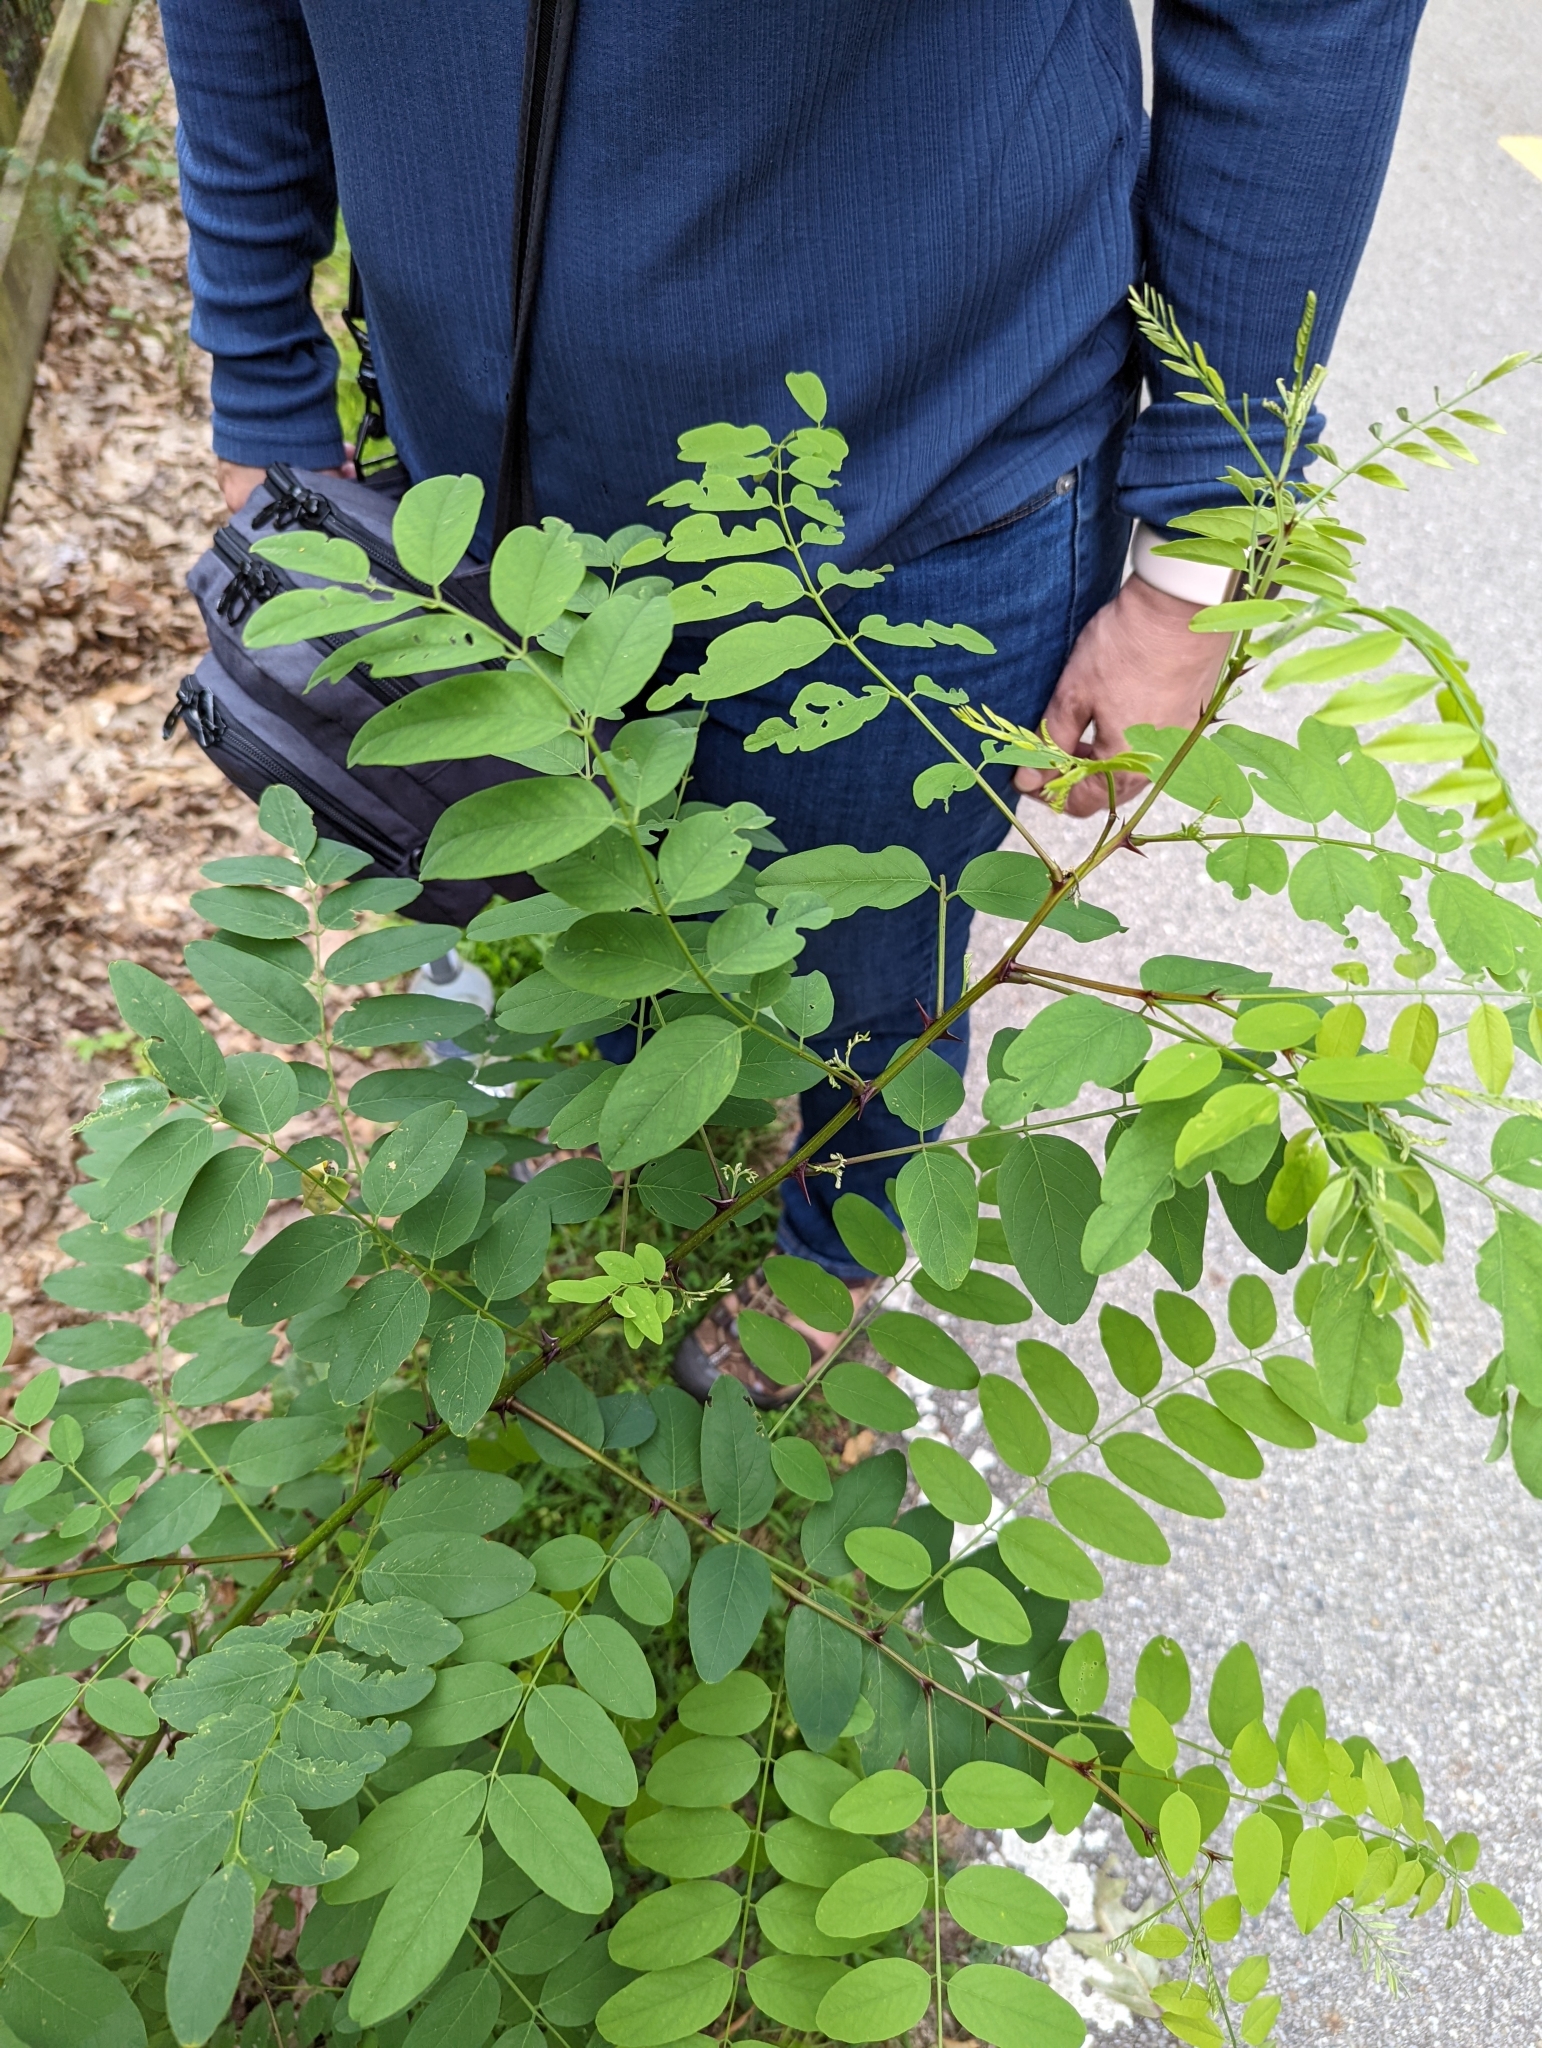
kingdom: Plantae
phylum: Tracheophyta
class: Magnoliopsida
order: Fabales
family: Fabaceae
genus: Robinia
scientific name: Robinia pseudoacacia
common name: Black locust
